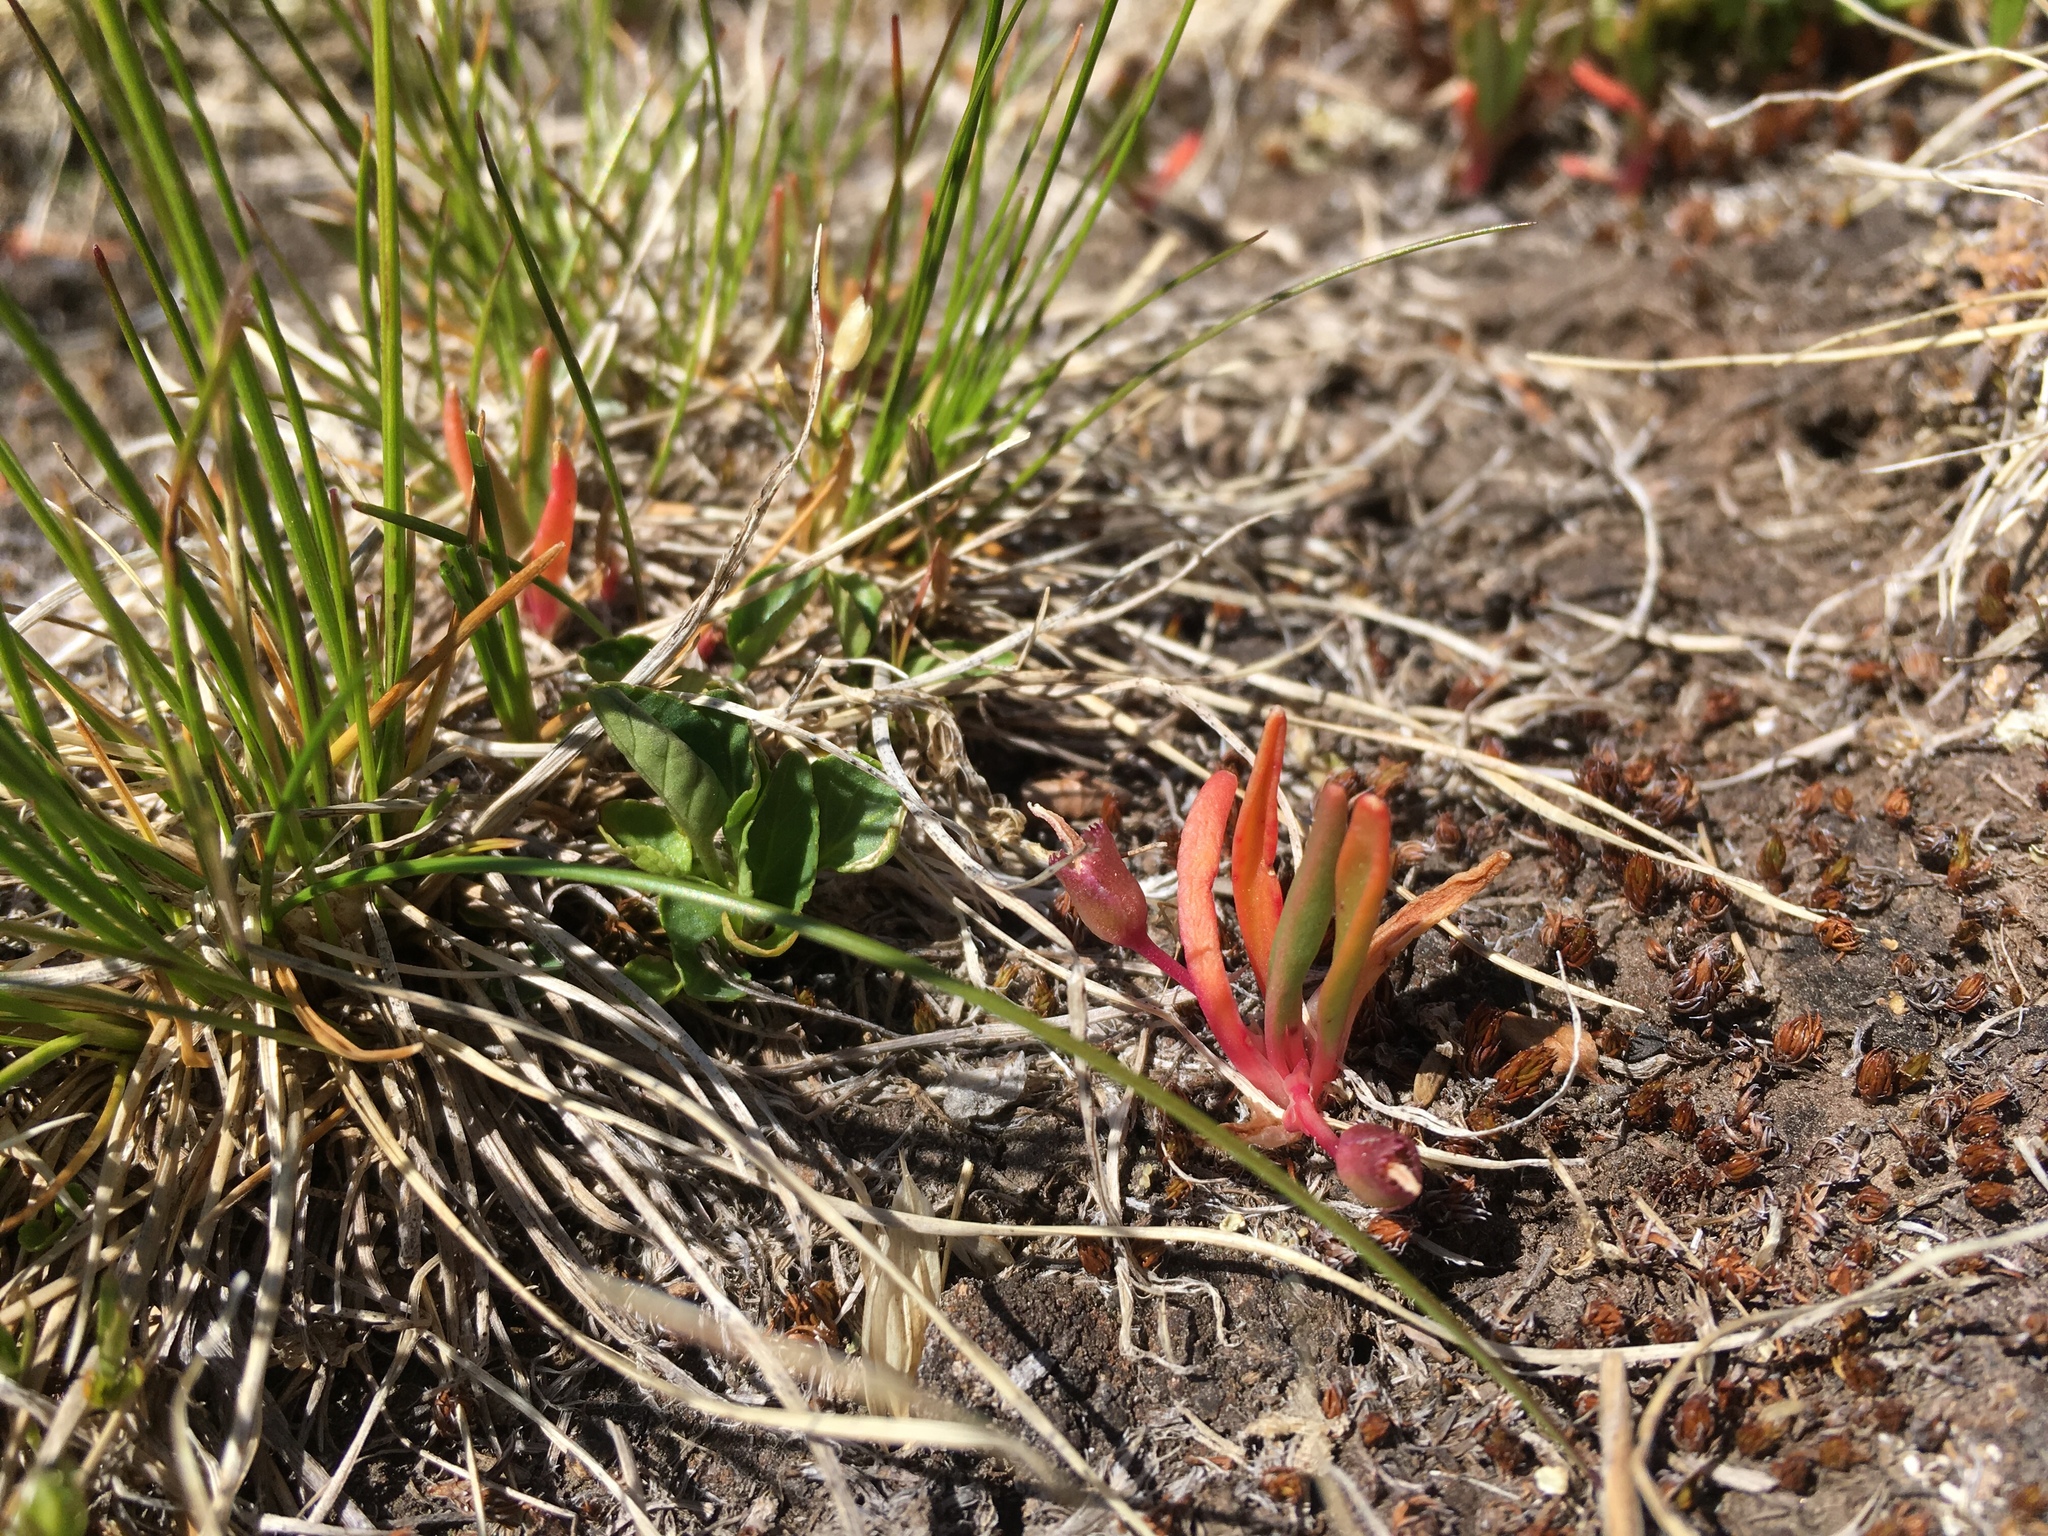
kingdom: Plantae
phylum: Tracheophyta
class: Magnoliopsida
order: Caryophyllales
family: Montiaceae
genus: Lewisia
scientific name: Lewisia pygmaea
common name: Alpine bitterroot
